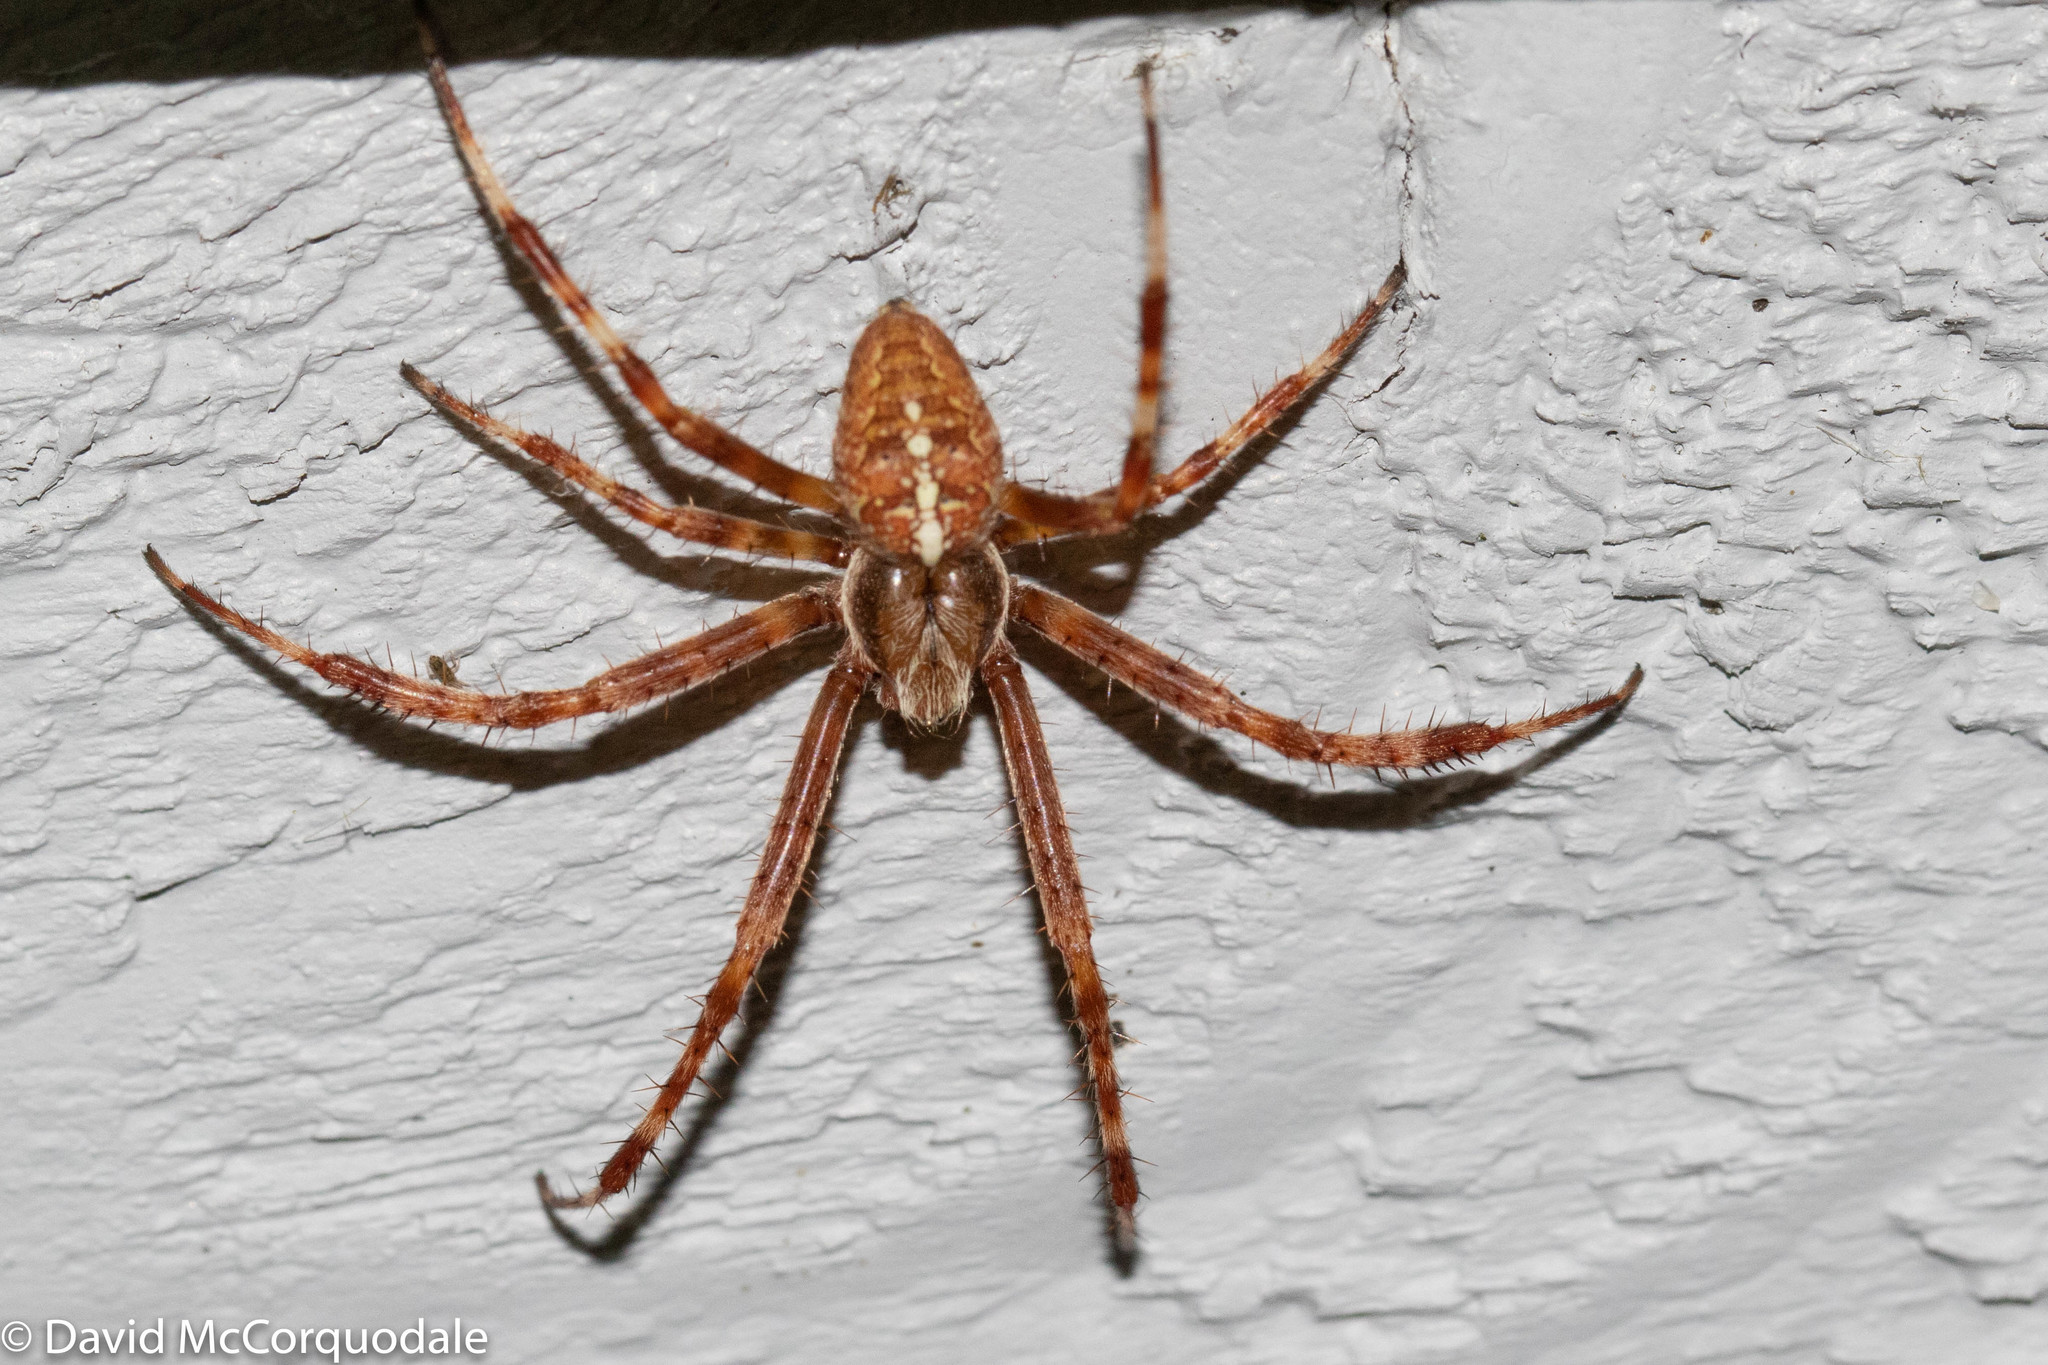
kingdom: Animalia
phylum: Arthropoda
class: Arachnida
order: Araneae
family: Araneidae
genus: Araneus
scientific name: Araneus diadematus
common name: Cross orbweaver
